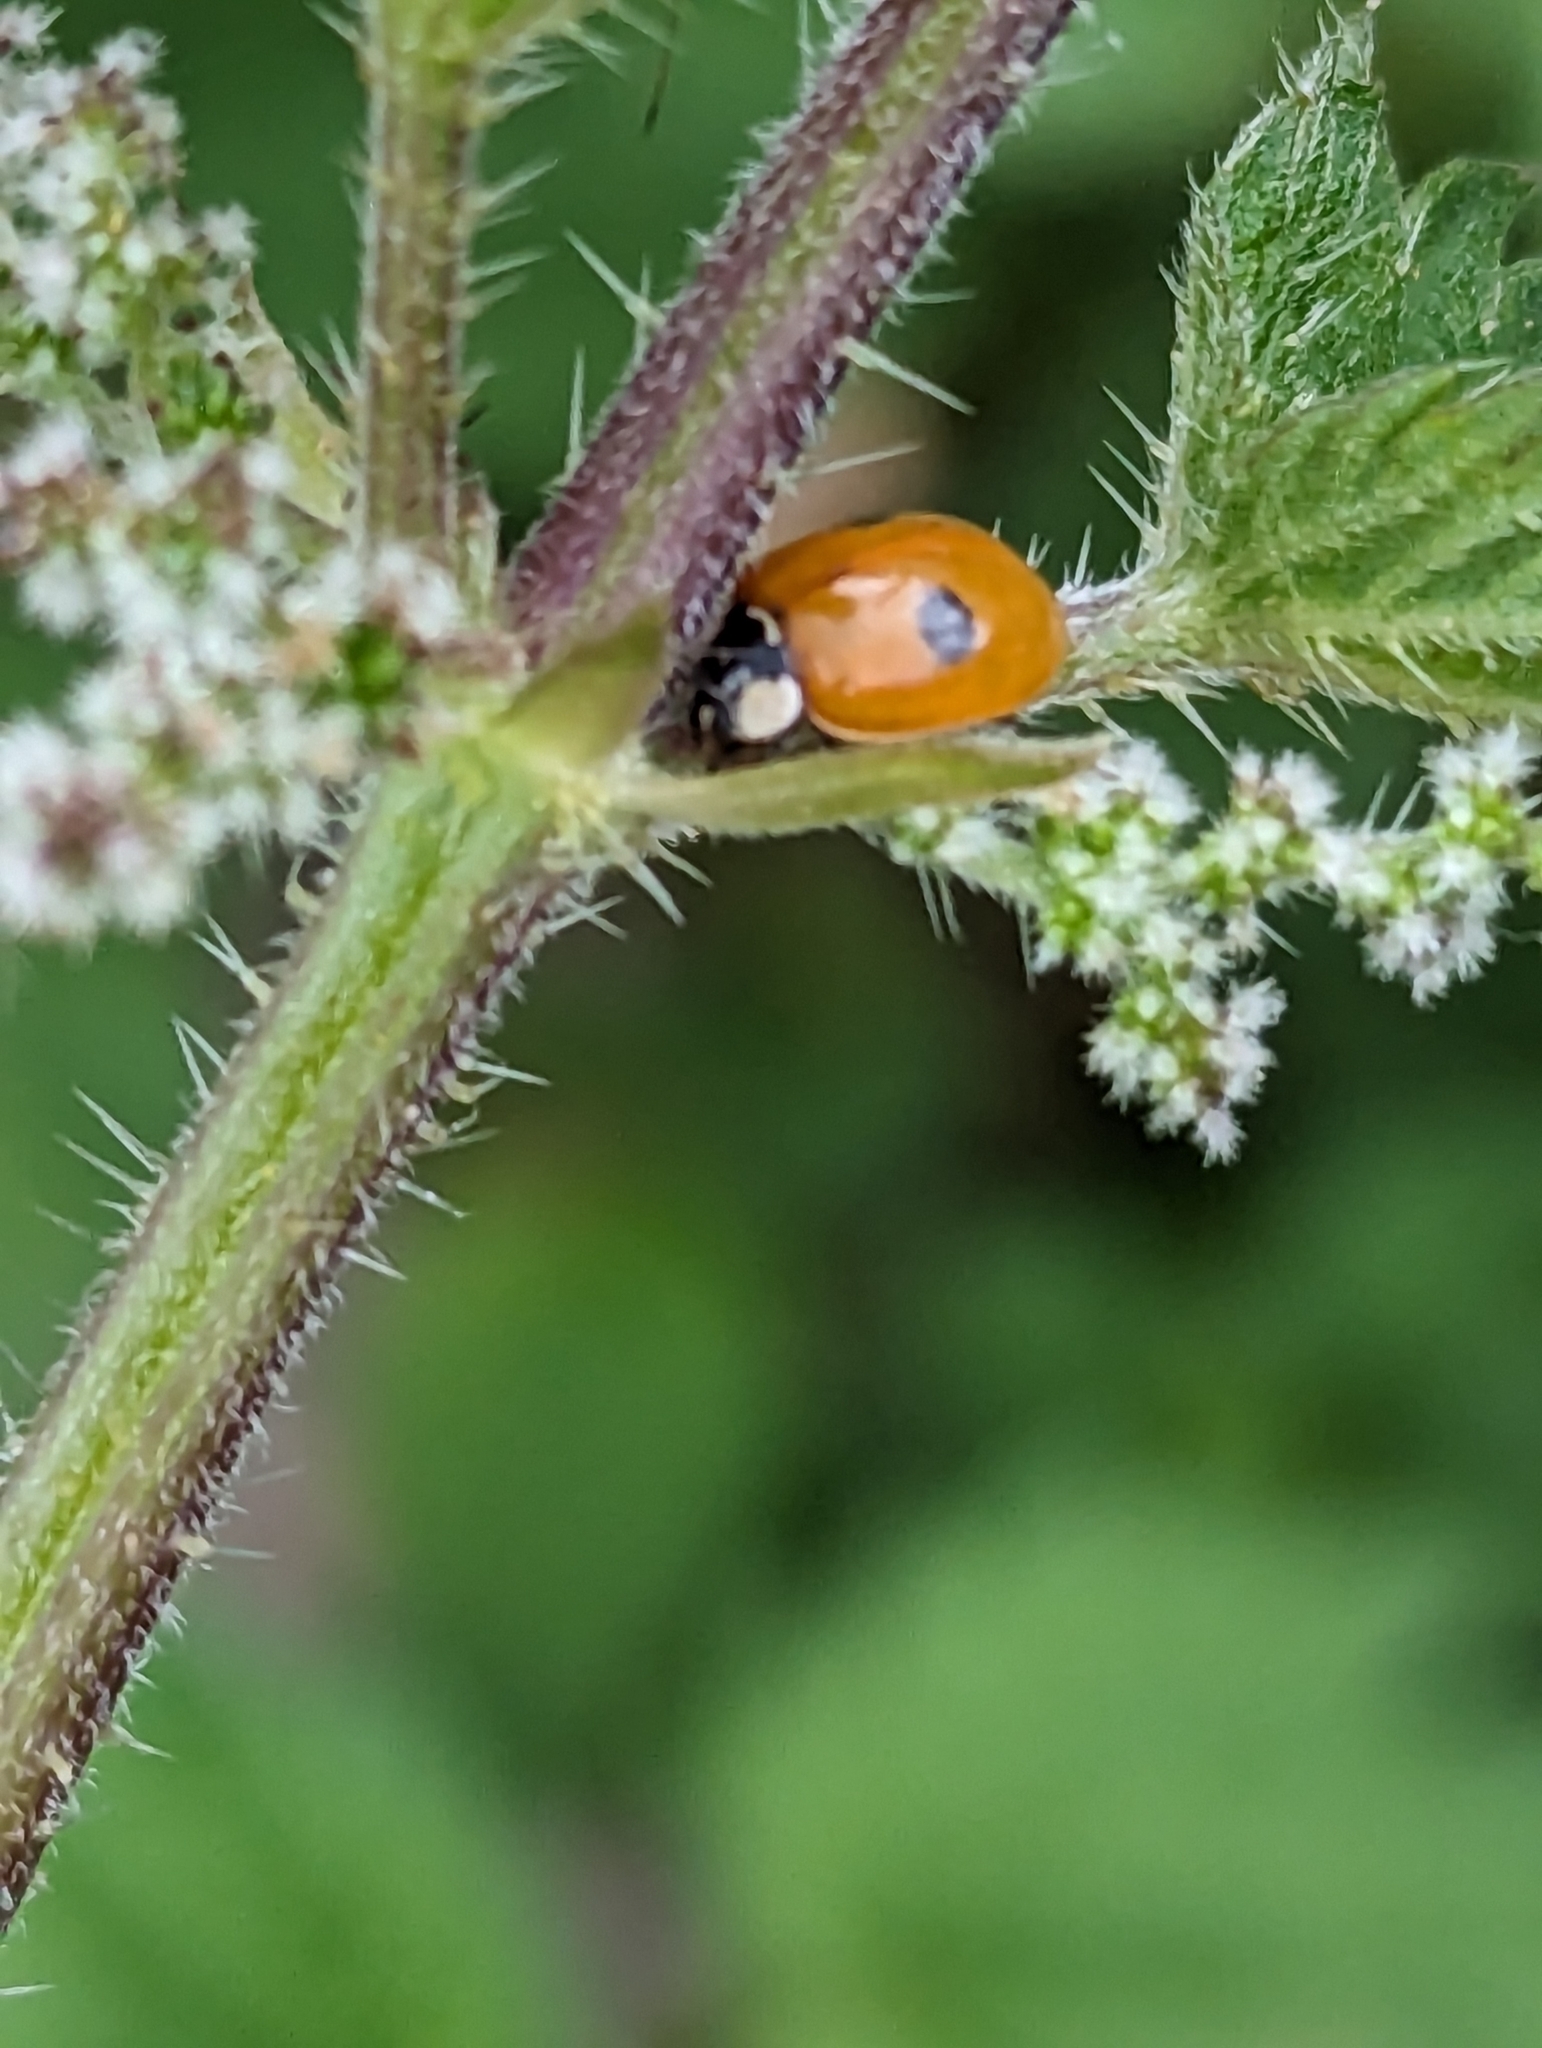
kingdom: Animalia
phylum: Arthropoda
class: Insecta
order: Coleoptera
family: Coccinellidae
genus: Adalia
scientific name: Adalia bipunctata
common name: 2-spot ladybird
